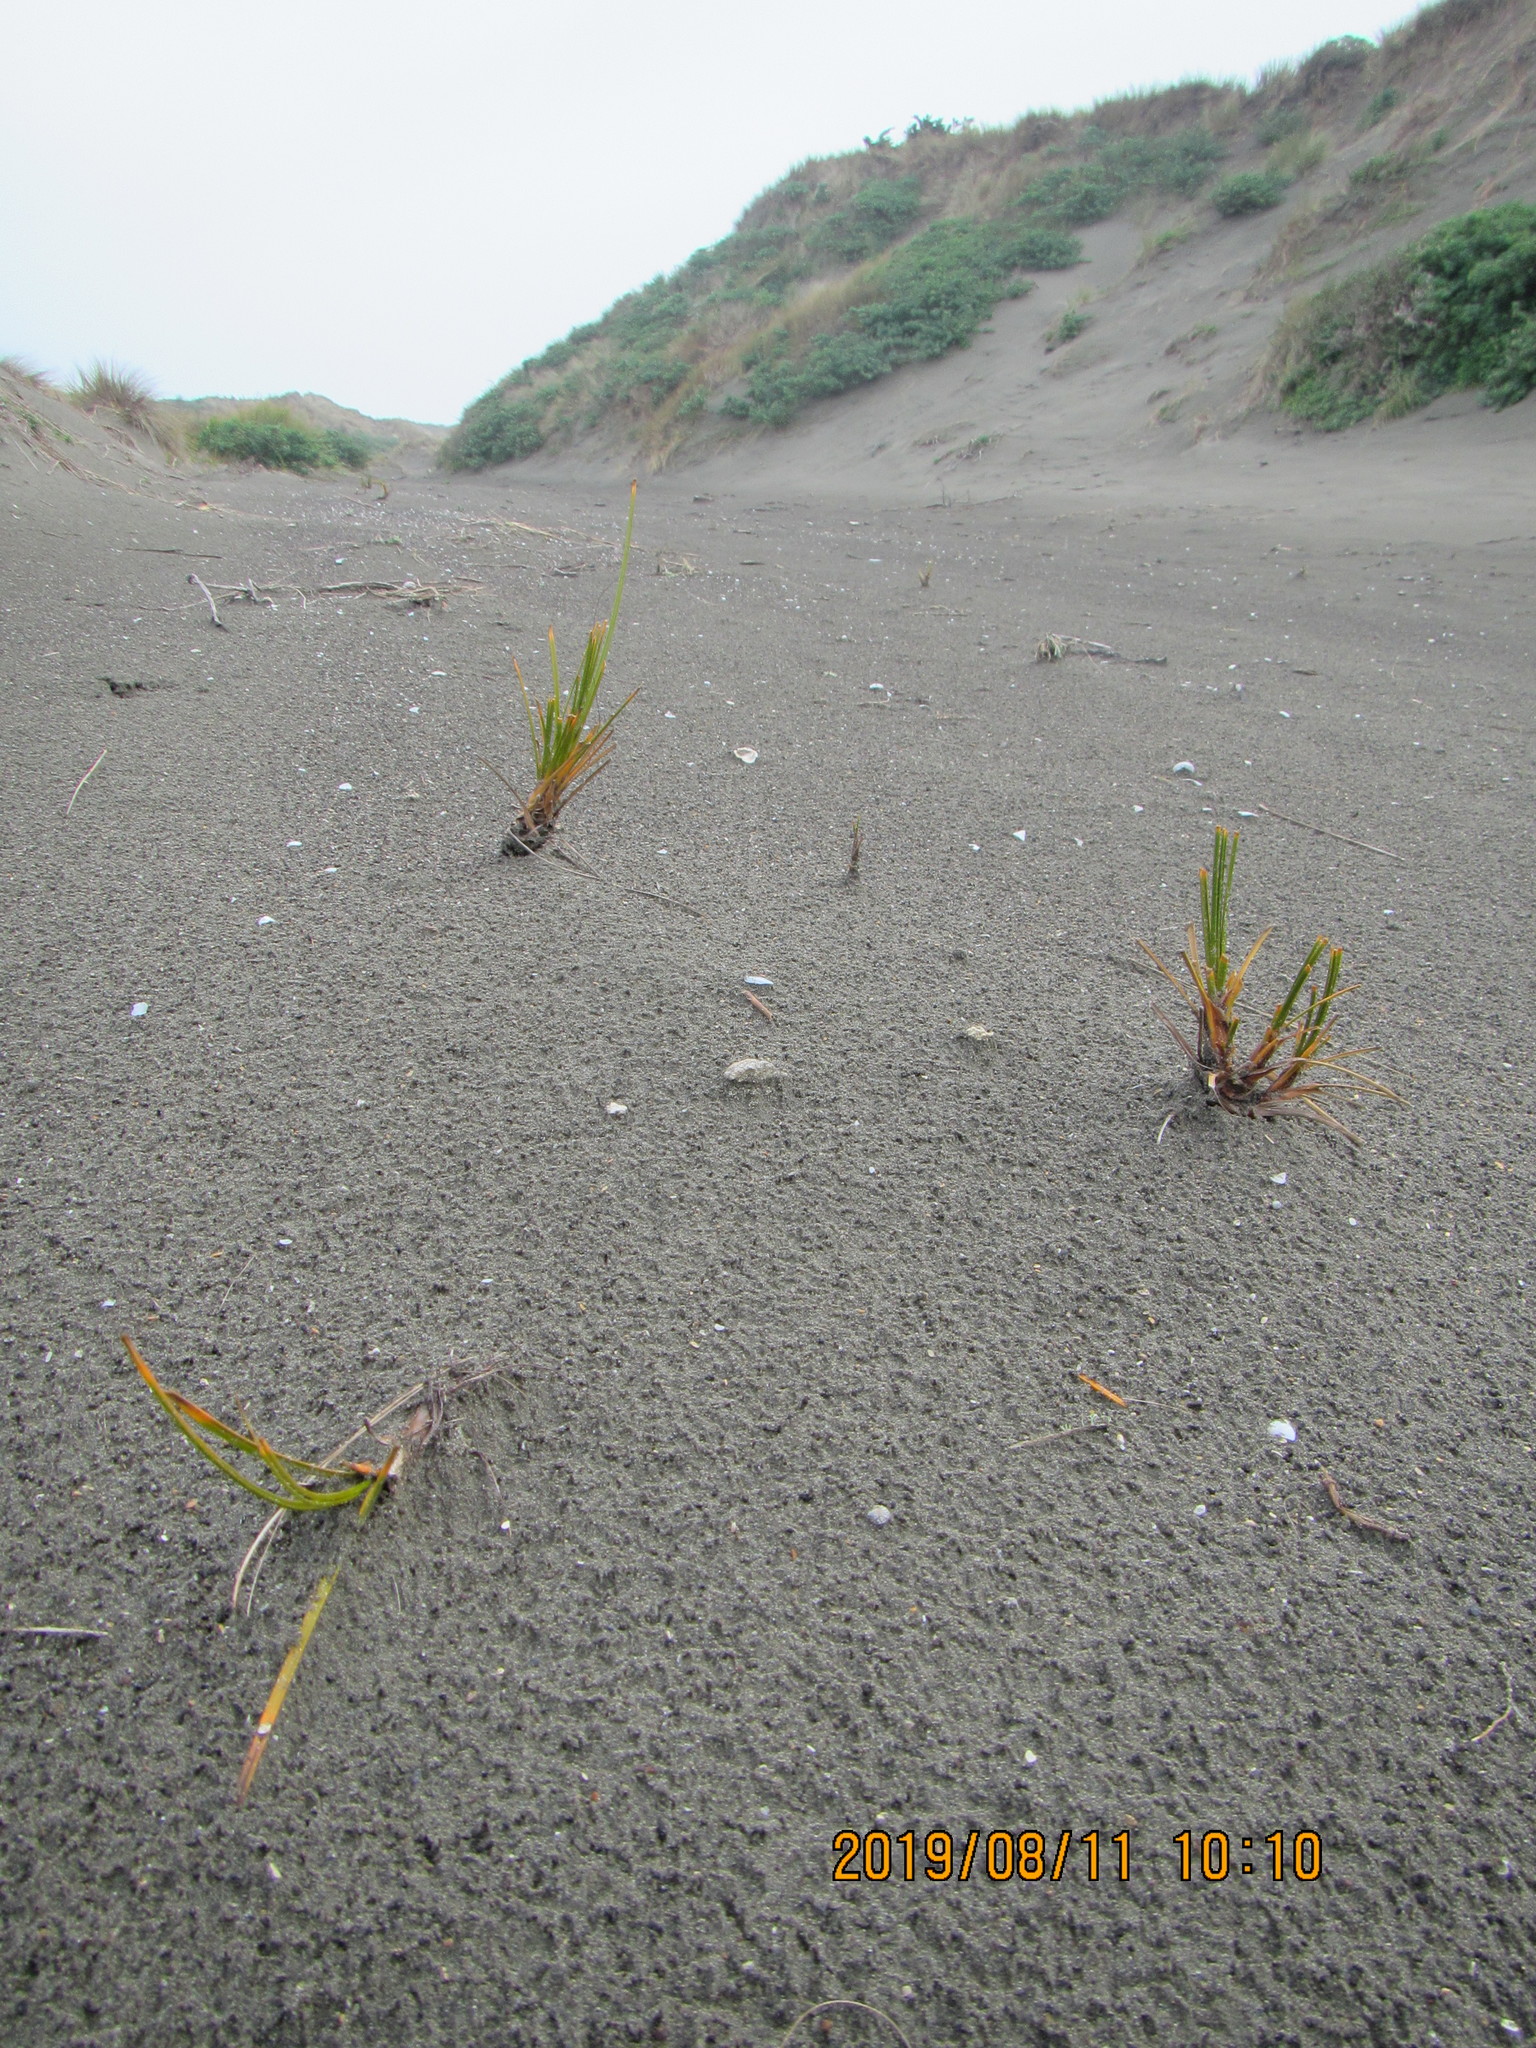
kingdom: Plantae
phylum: Tracheophyta
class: Liliopsida
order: Poales
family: Cyperaceae
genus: Ficinia
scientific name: Ficinia spiralis
